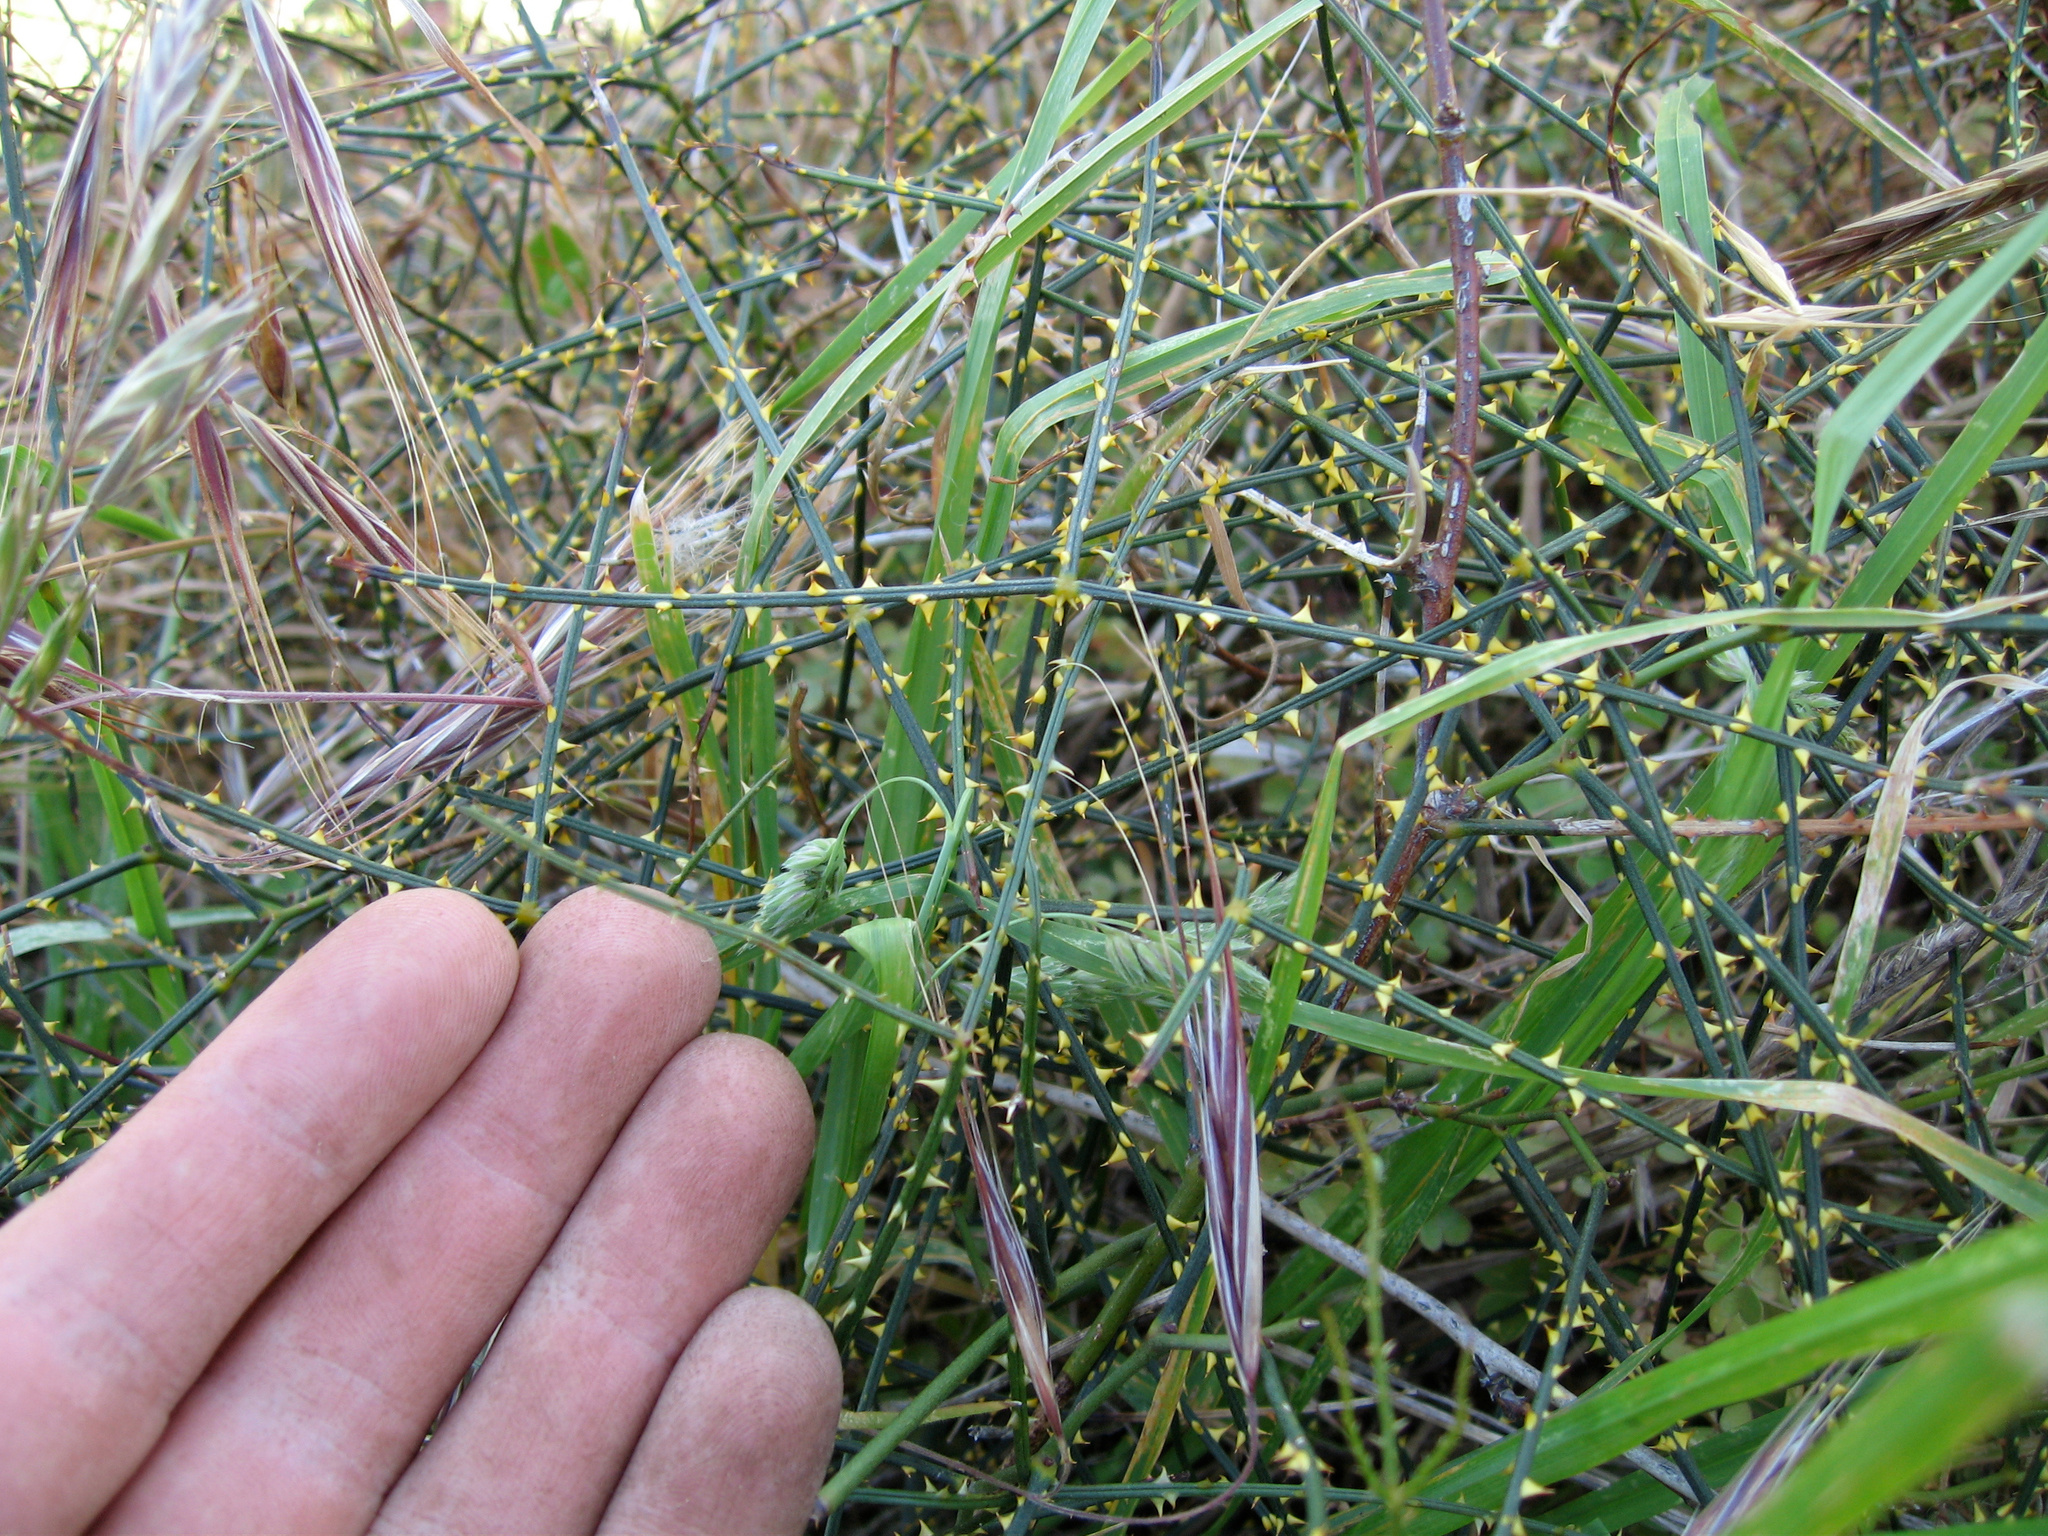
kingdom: Plantae
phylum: Tracheophyta
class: Magnoliopsida
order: Rosales
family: Rosaceae
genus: Rubus
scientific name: Rubus squarrosus
